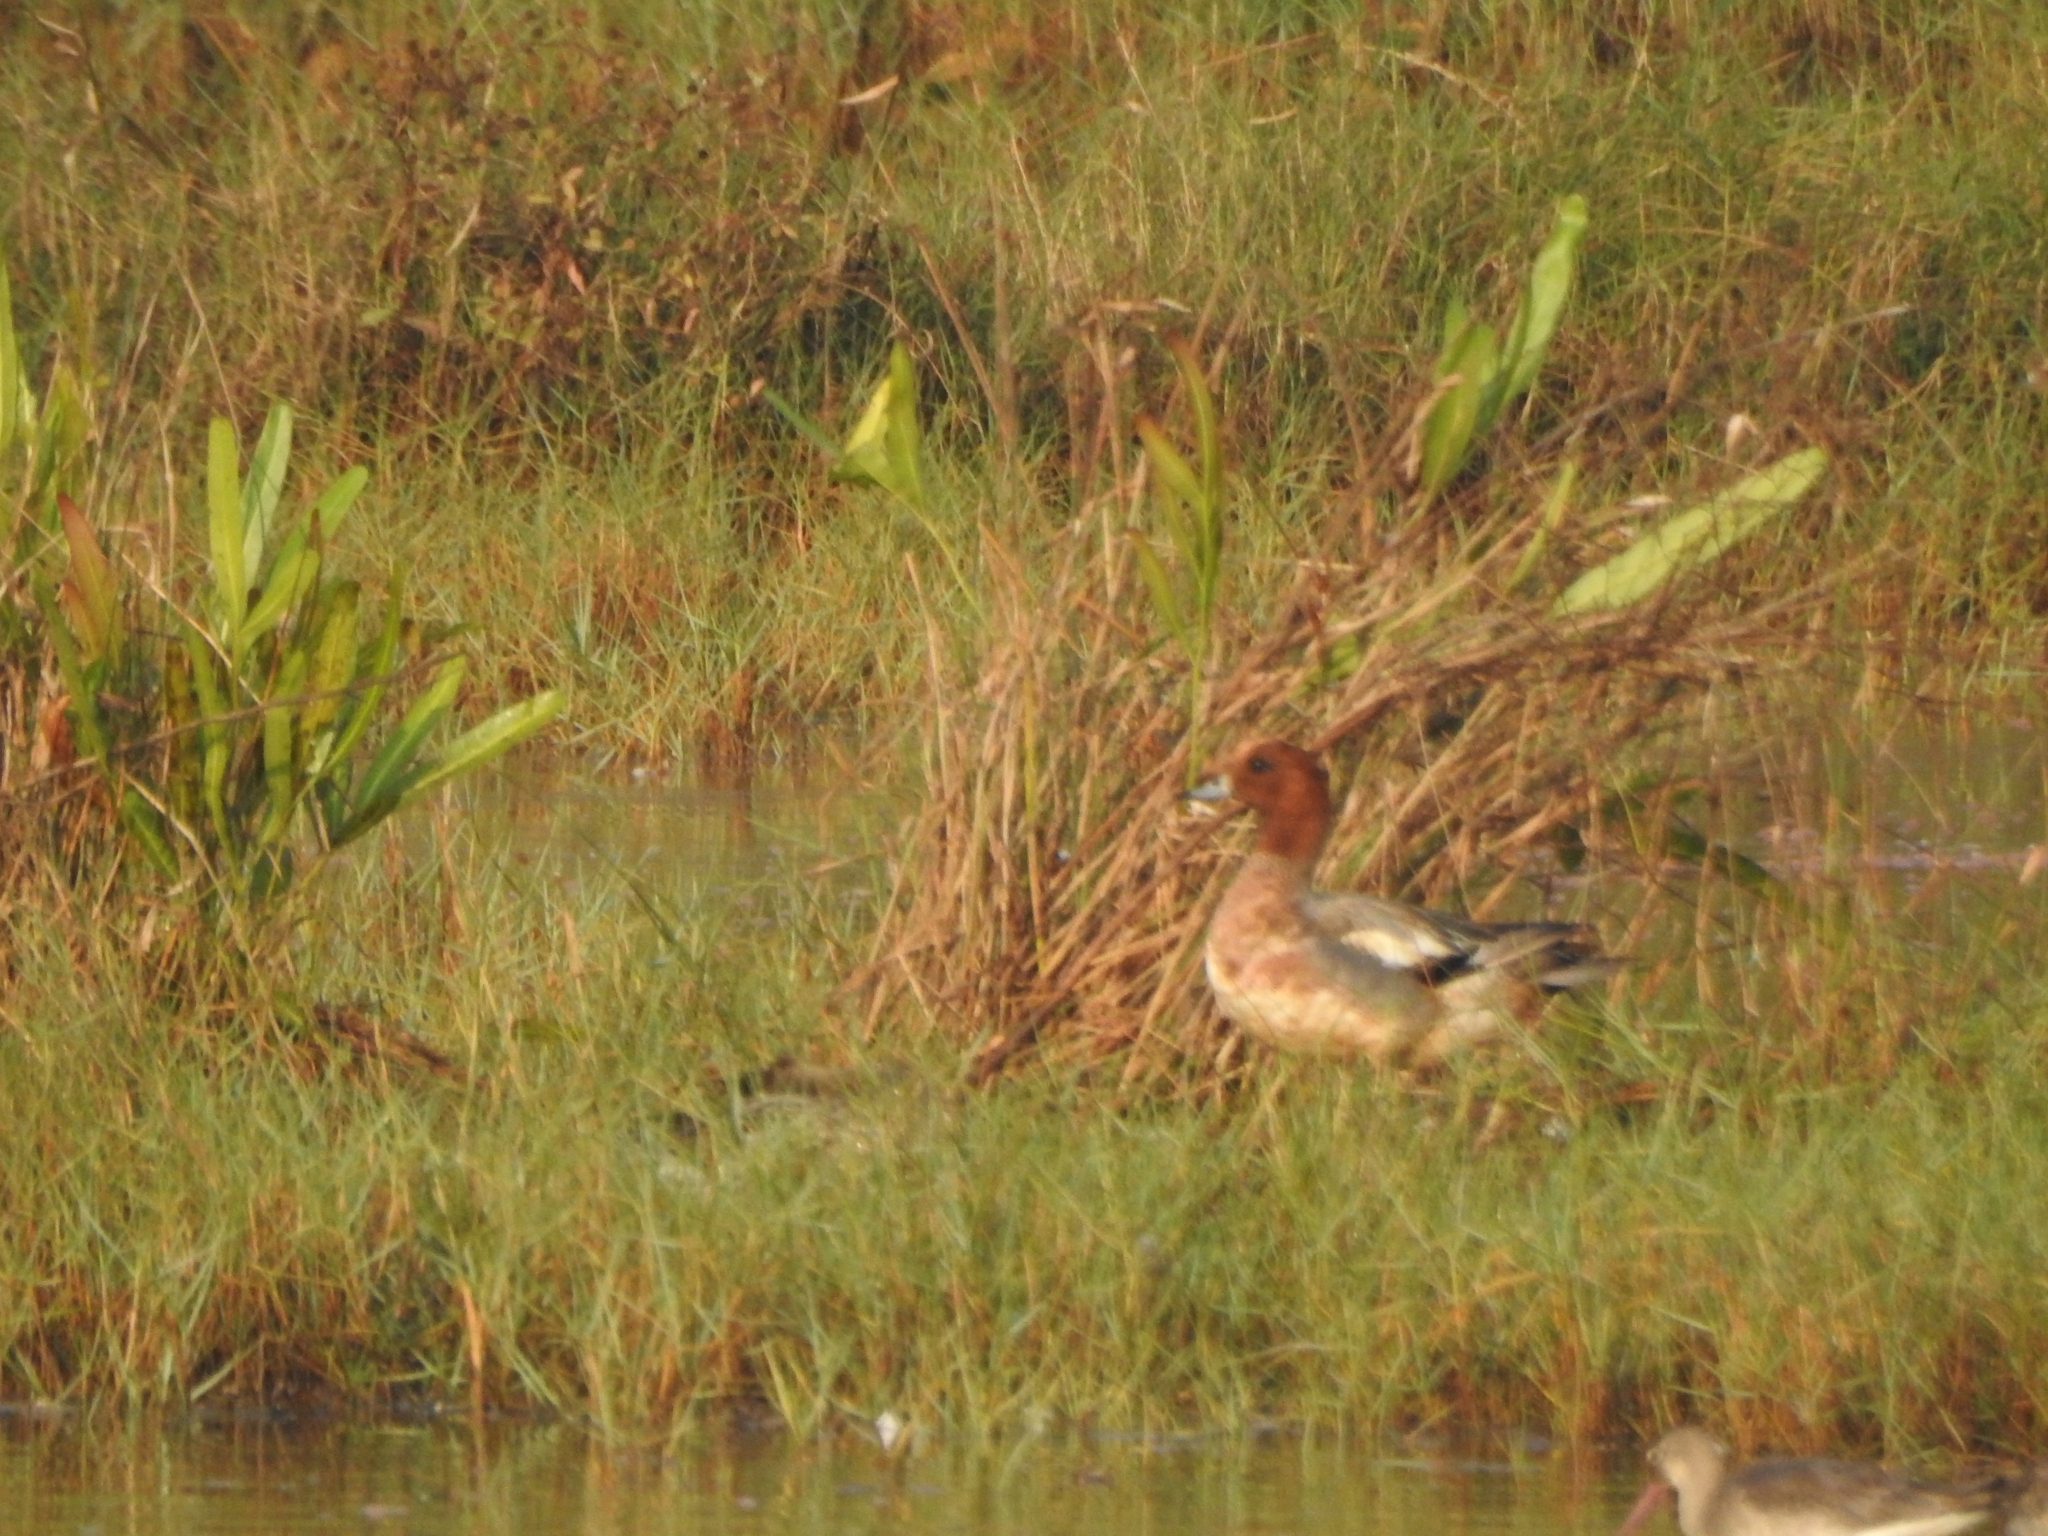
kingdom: Animalia
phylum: Chordata
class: Aves
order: Anseriformes
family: Anatidae
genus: Mareca
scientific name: Mareca penelope
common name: Eurasian wigeon
